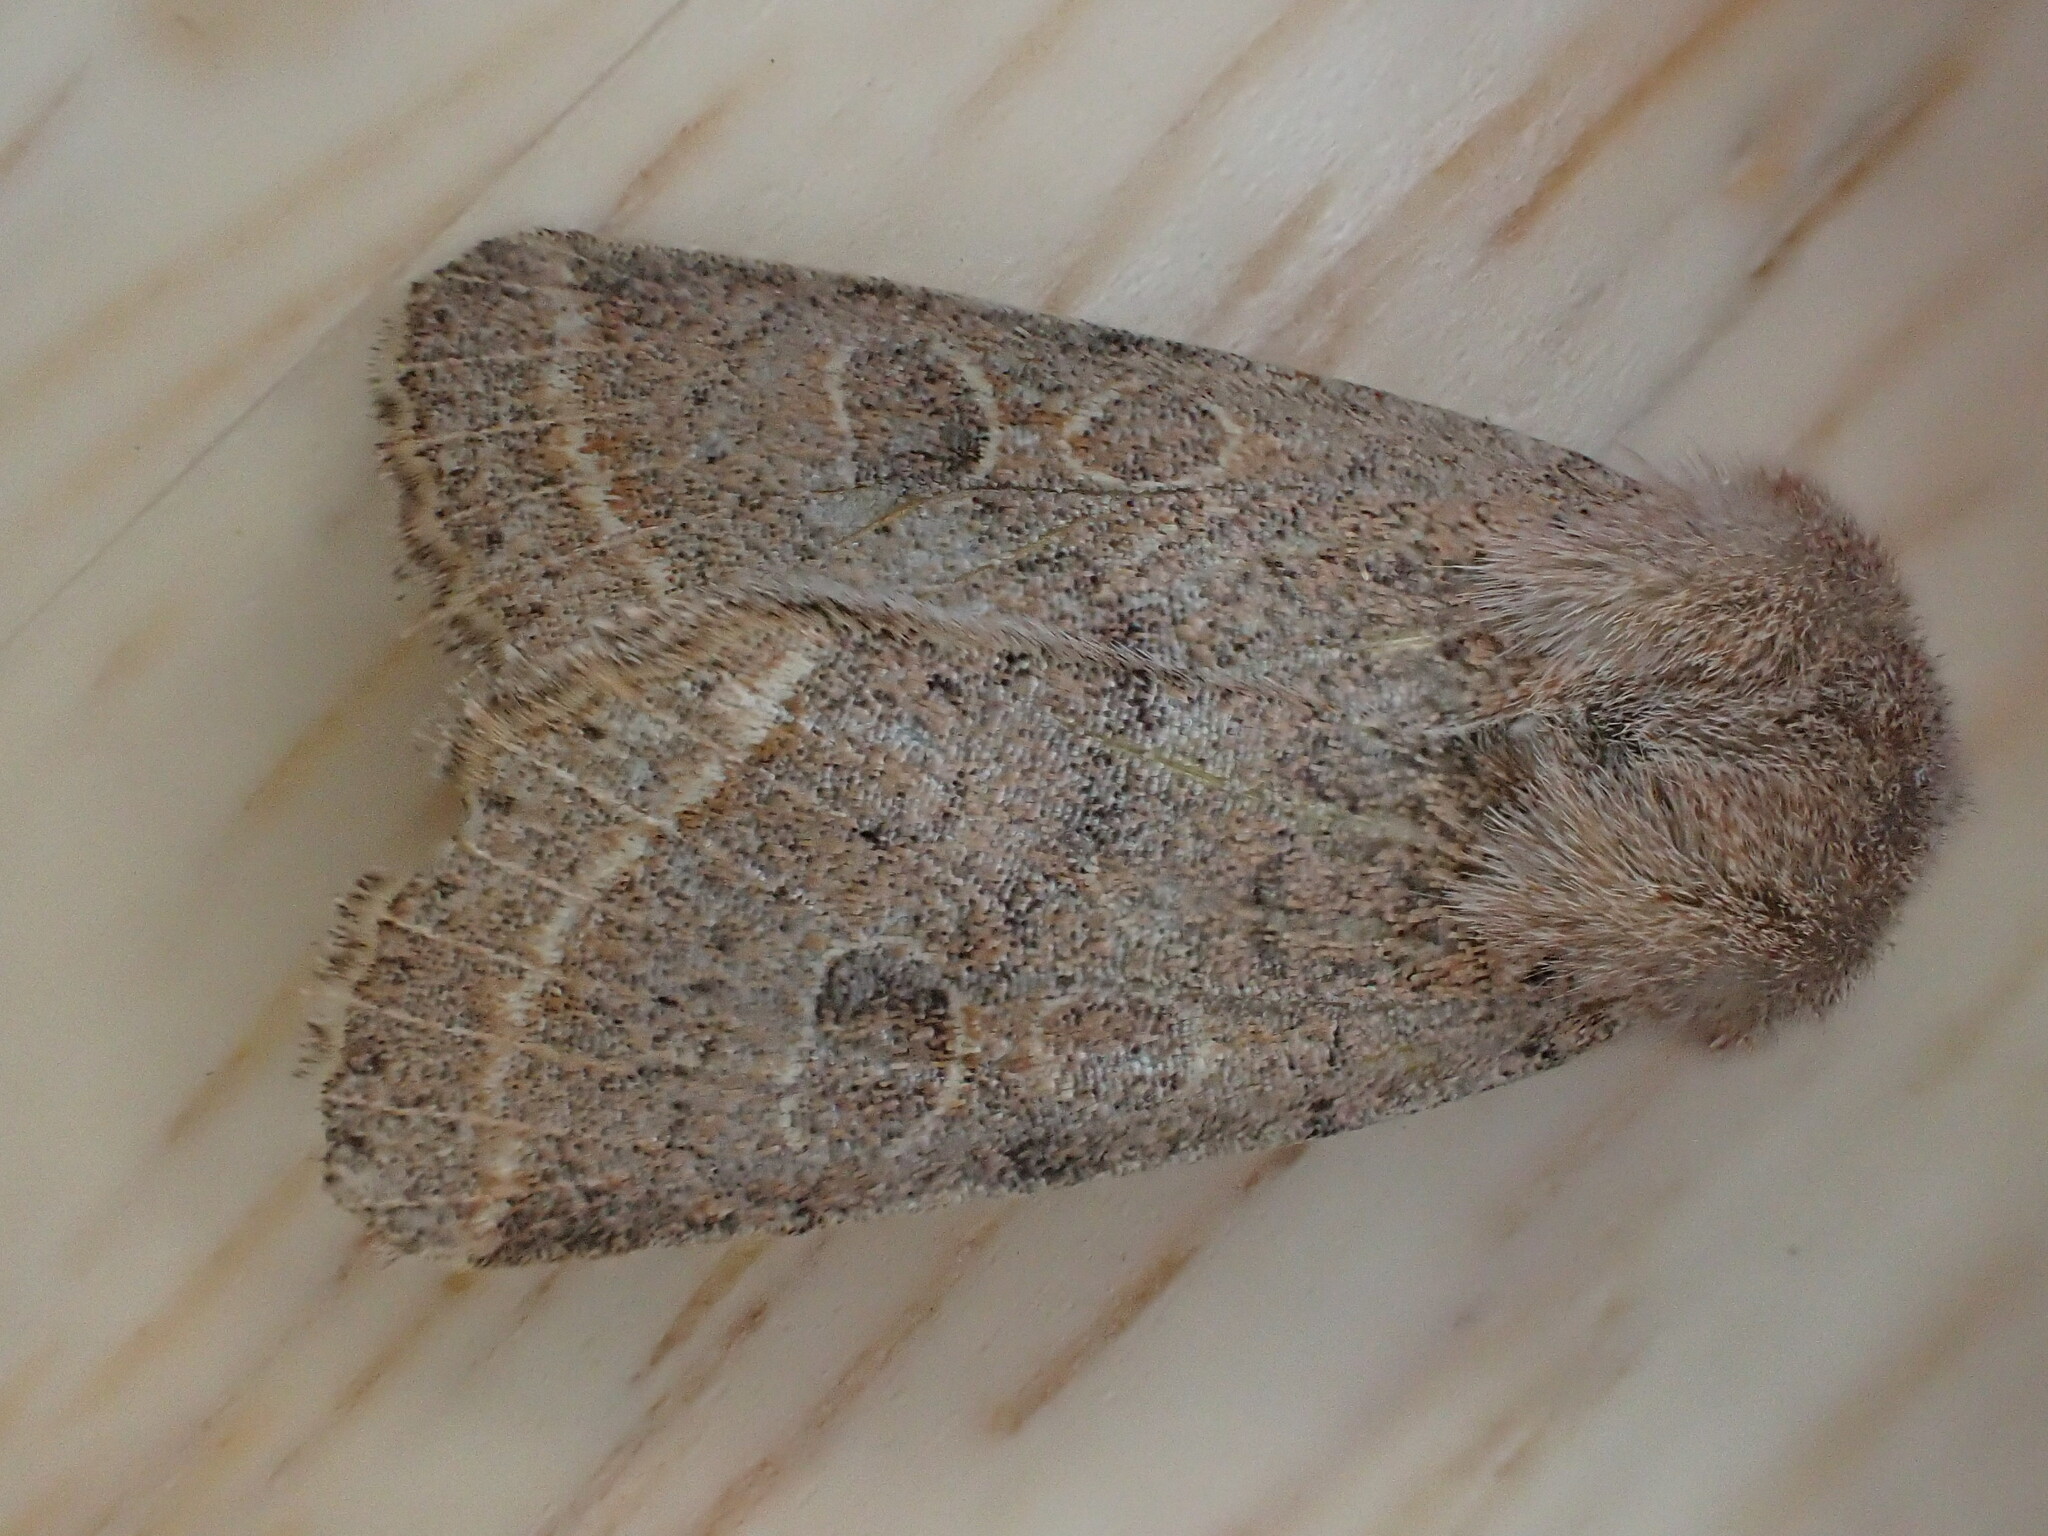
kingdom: Animalia
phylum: Arthropoda
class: Insecta
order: Lepidoptera
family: Noctuidae
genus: Orthosia
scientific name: Orthosia cerasi
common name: Common quaker
